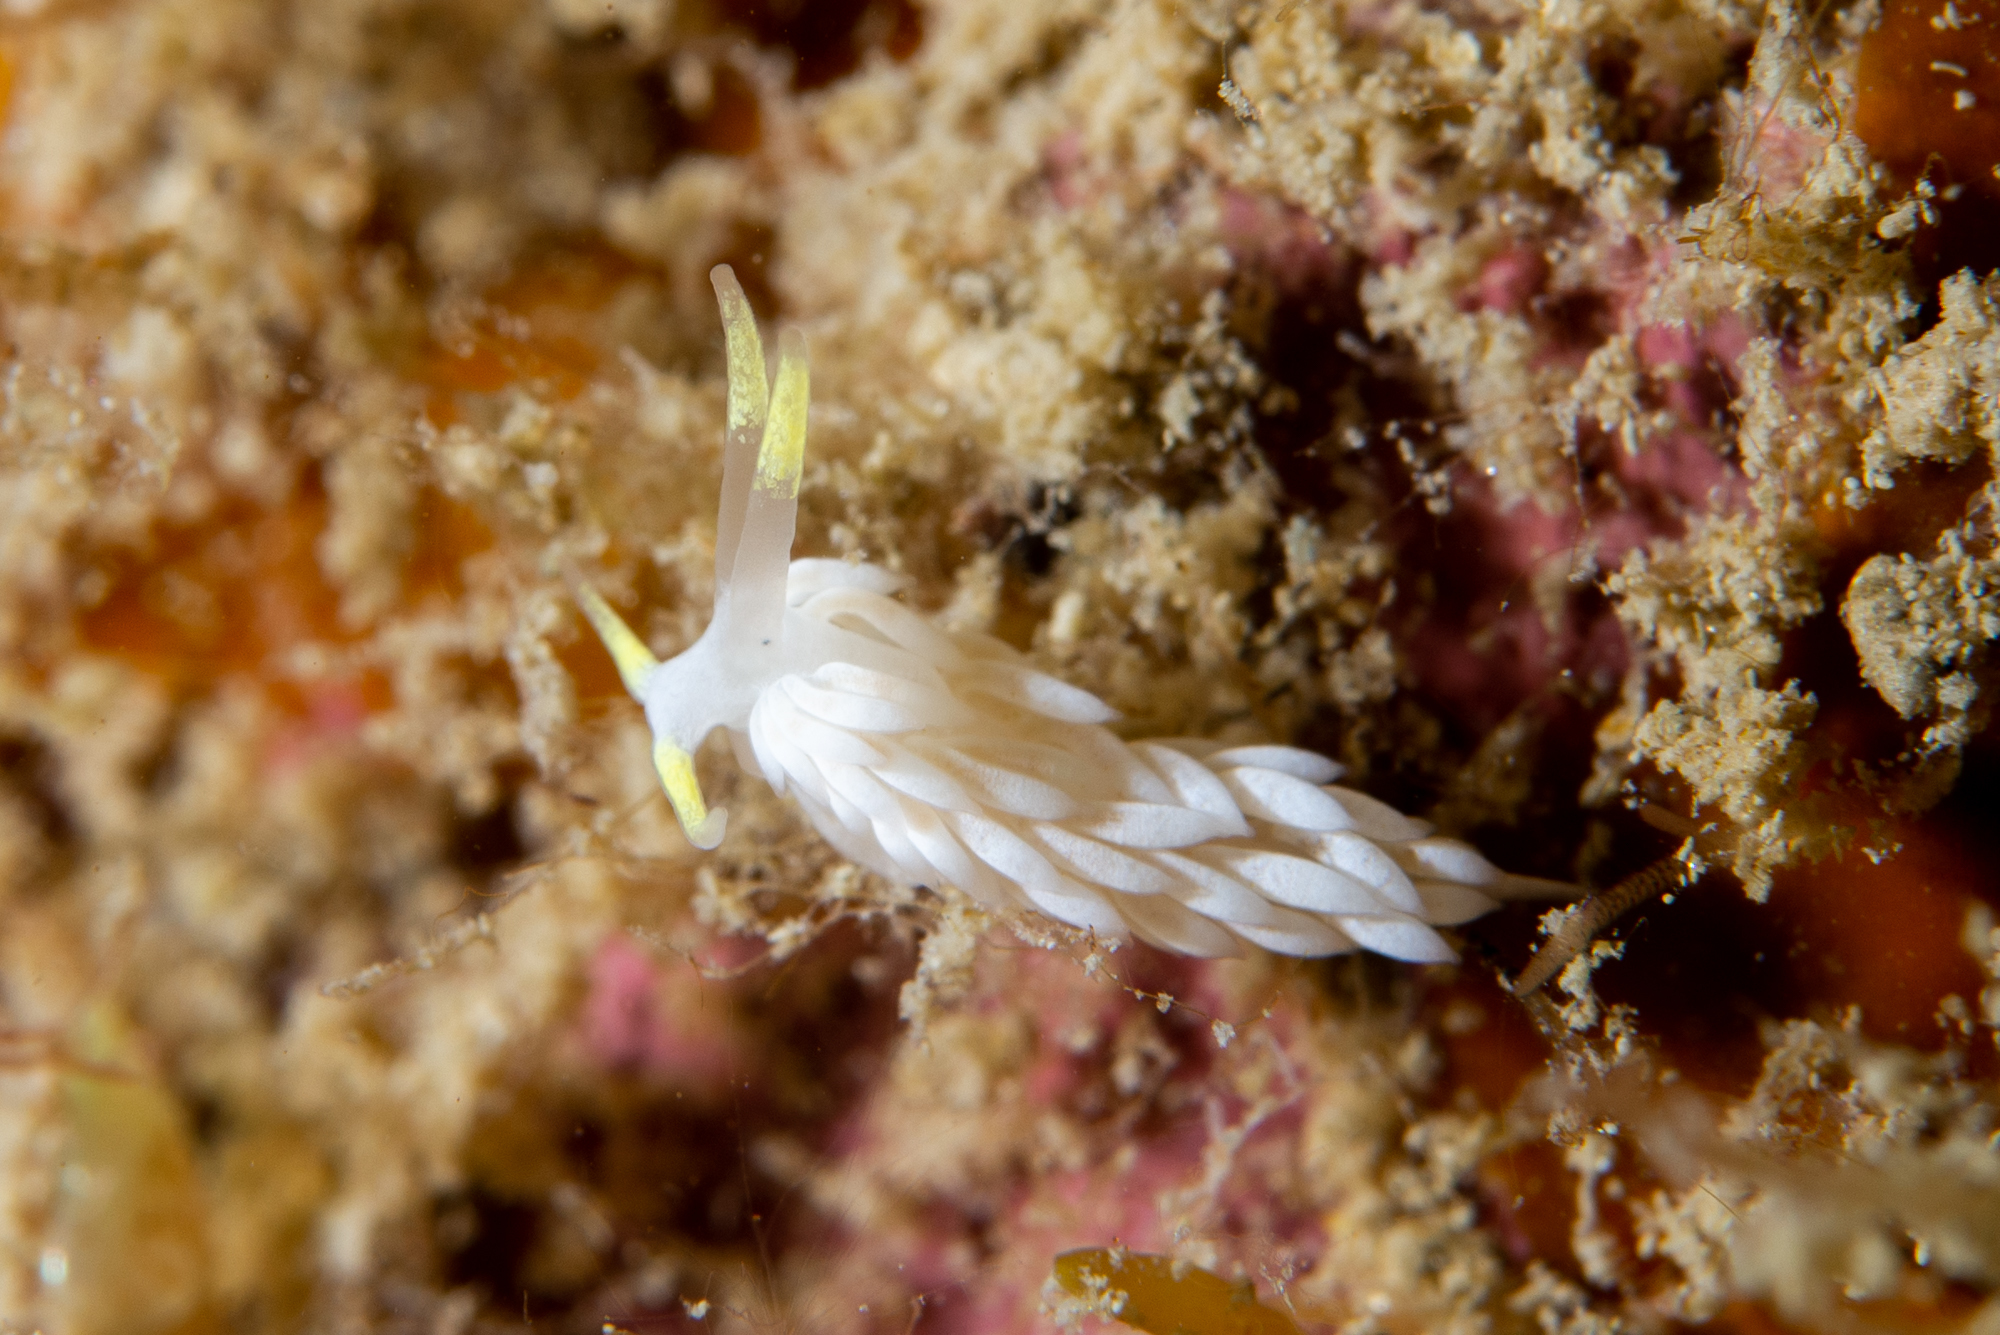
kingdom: Animalia
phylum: Mollusca
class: Gastropoda
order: Nudibranchia
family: Facelinidae
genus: Dicata
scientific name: Dicata odhneri
